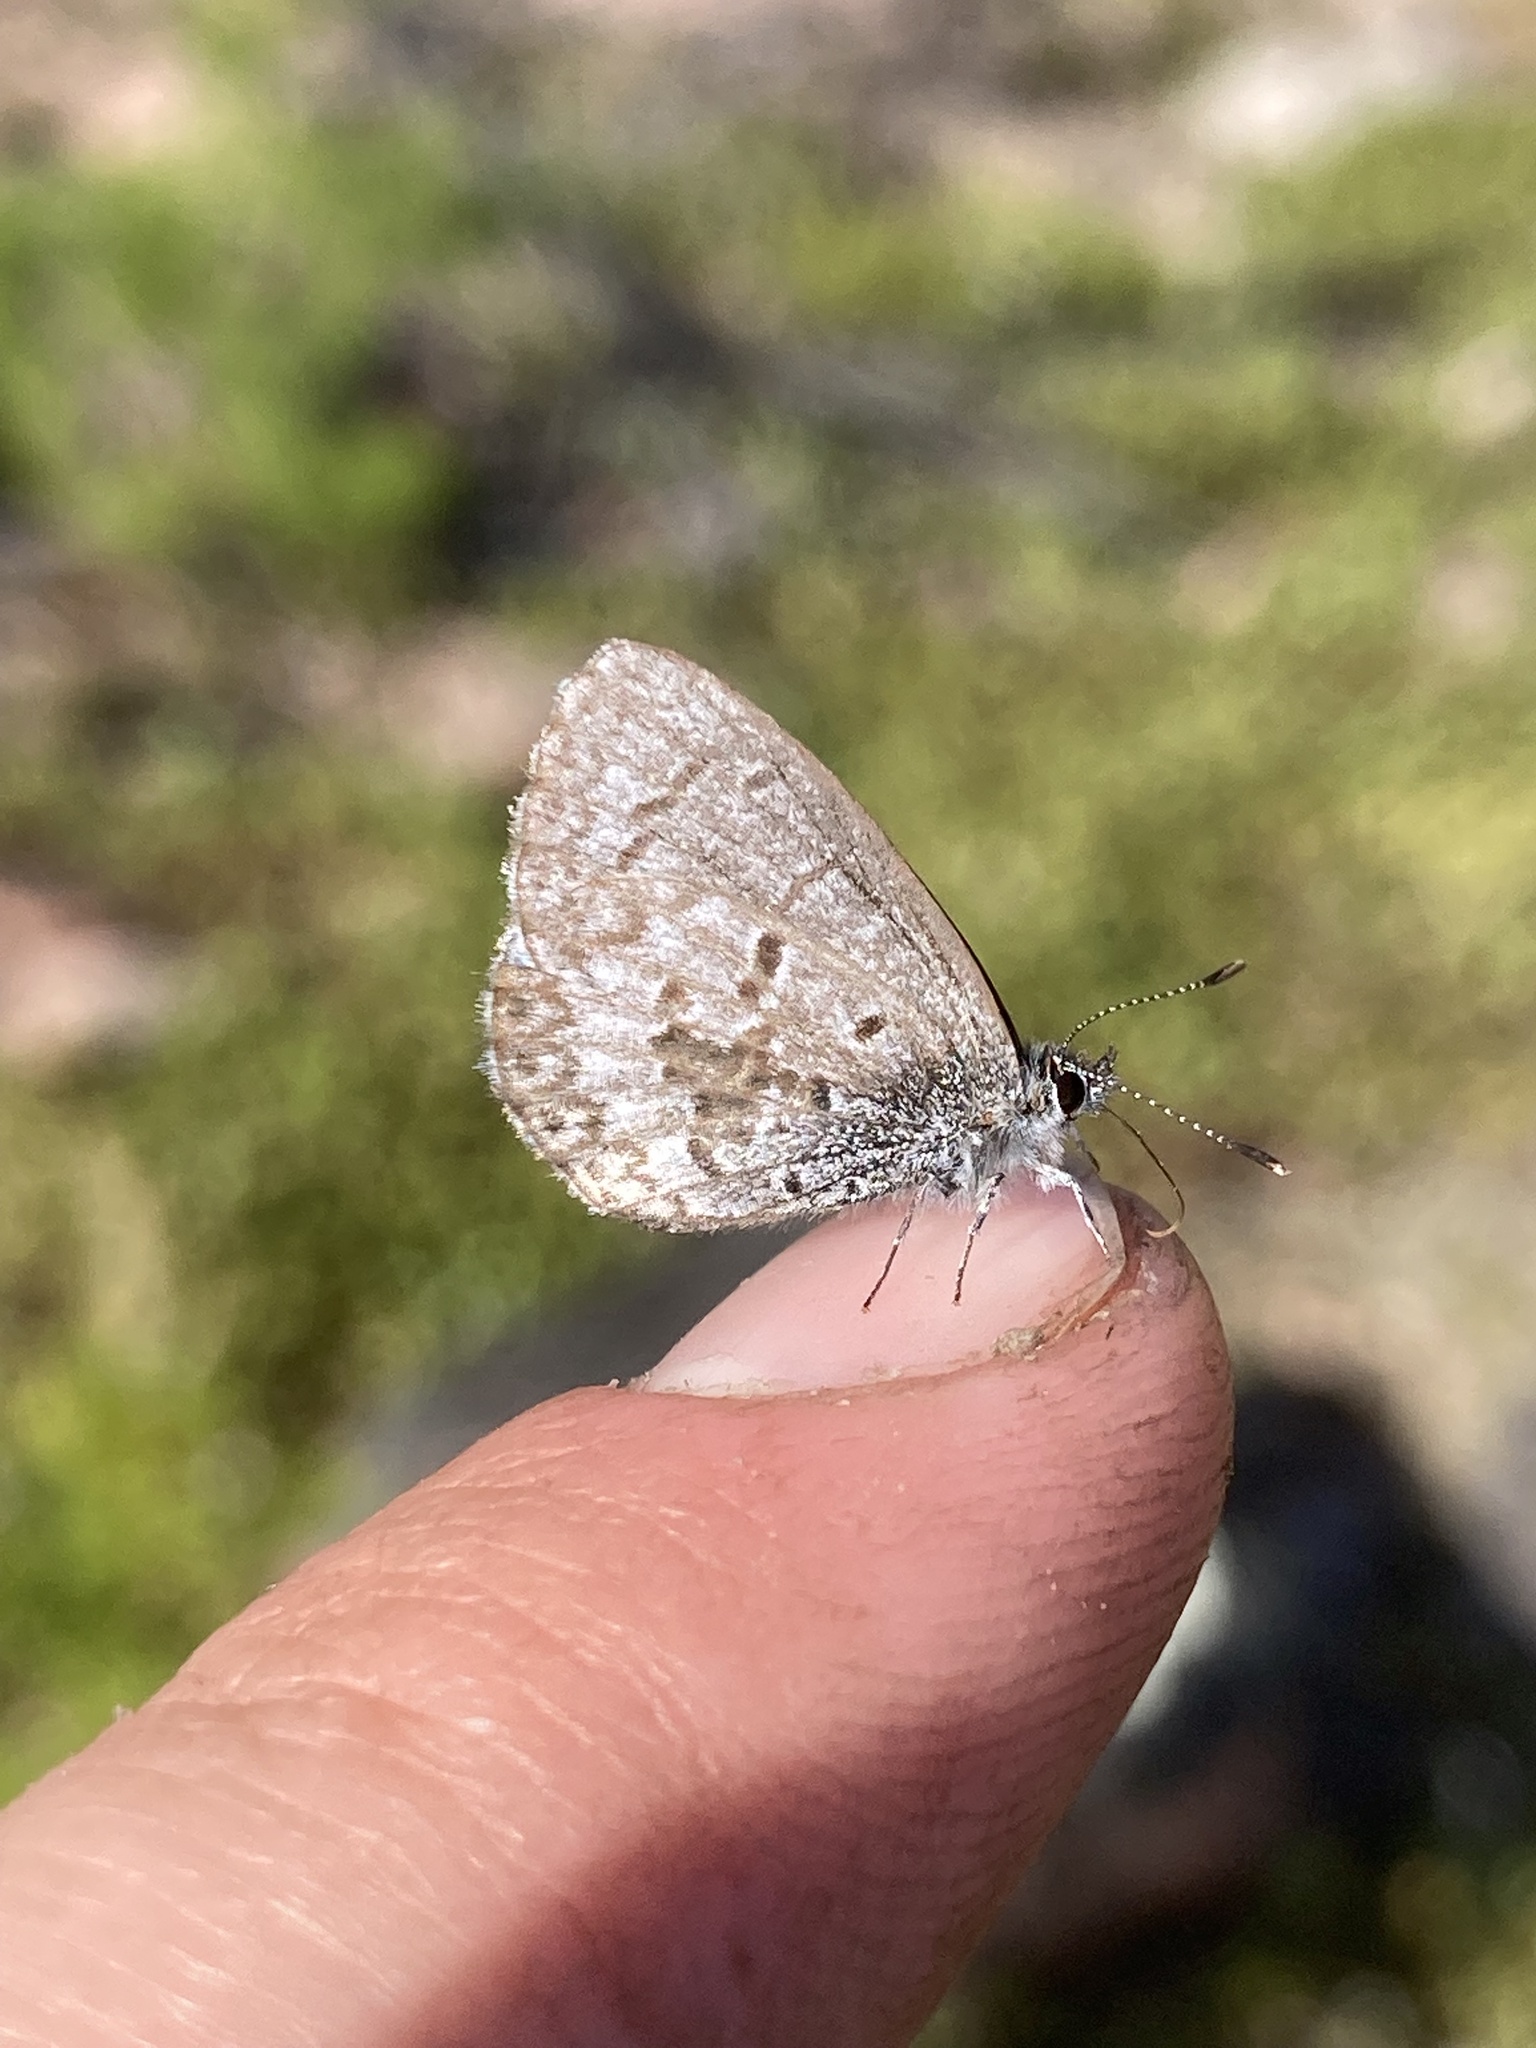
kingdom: Animalia
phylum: Arthropoda
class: Insecta
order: Lepidoptera
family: Lycaenidae
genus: Celastrina
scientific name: Celastrina lucia
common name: Lucia azure
